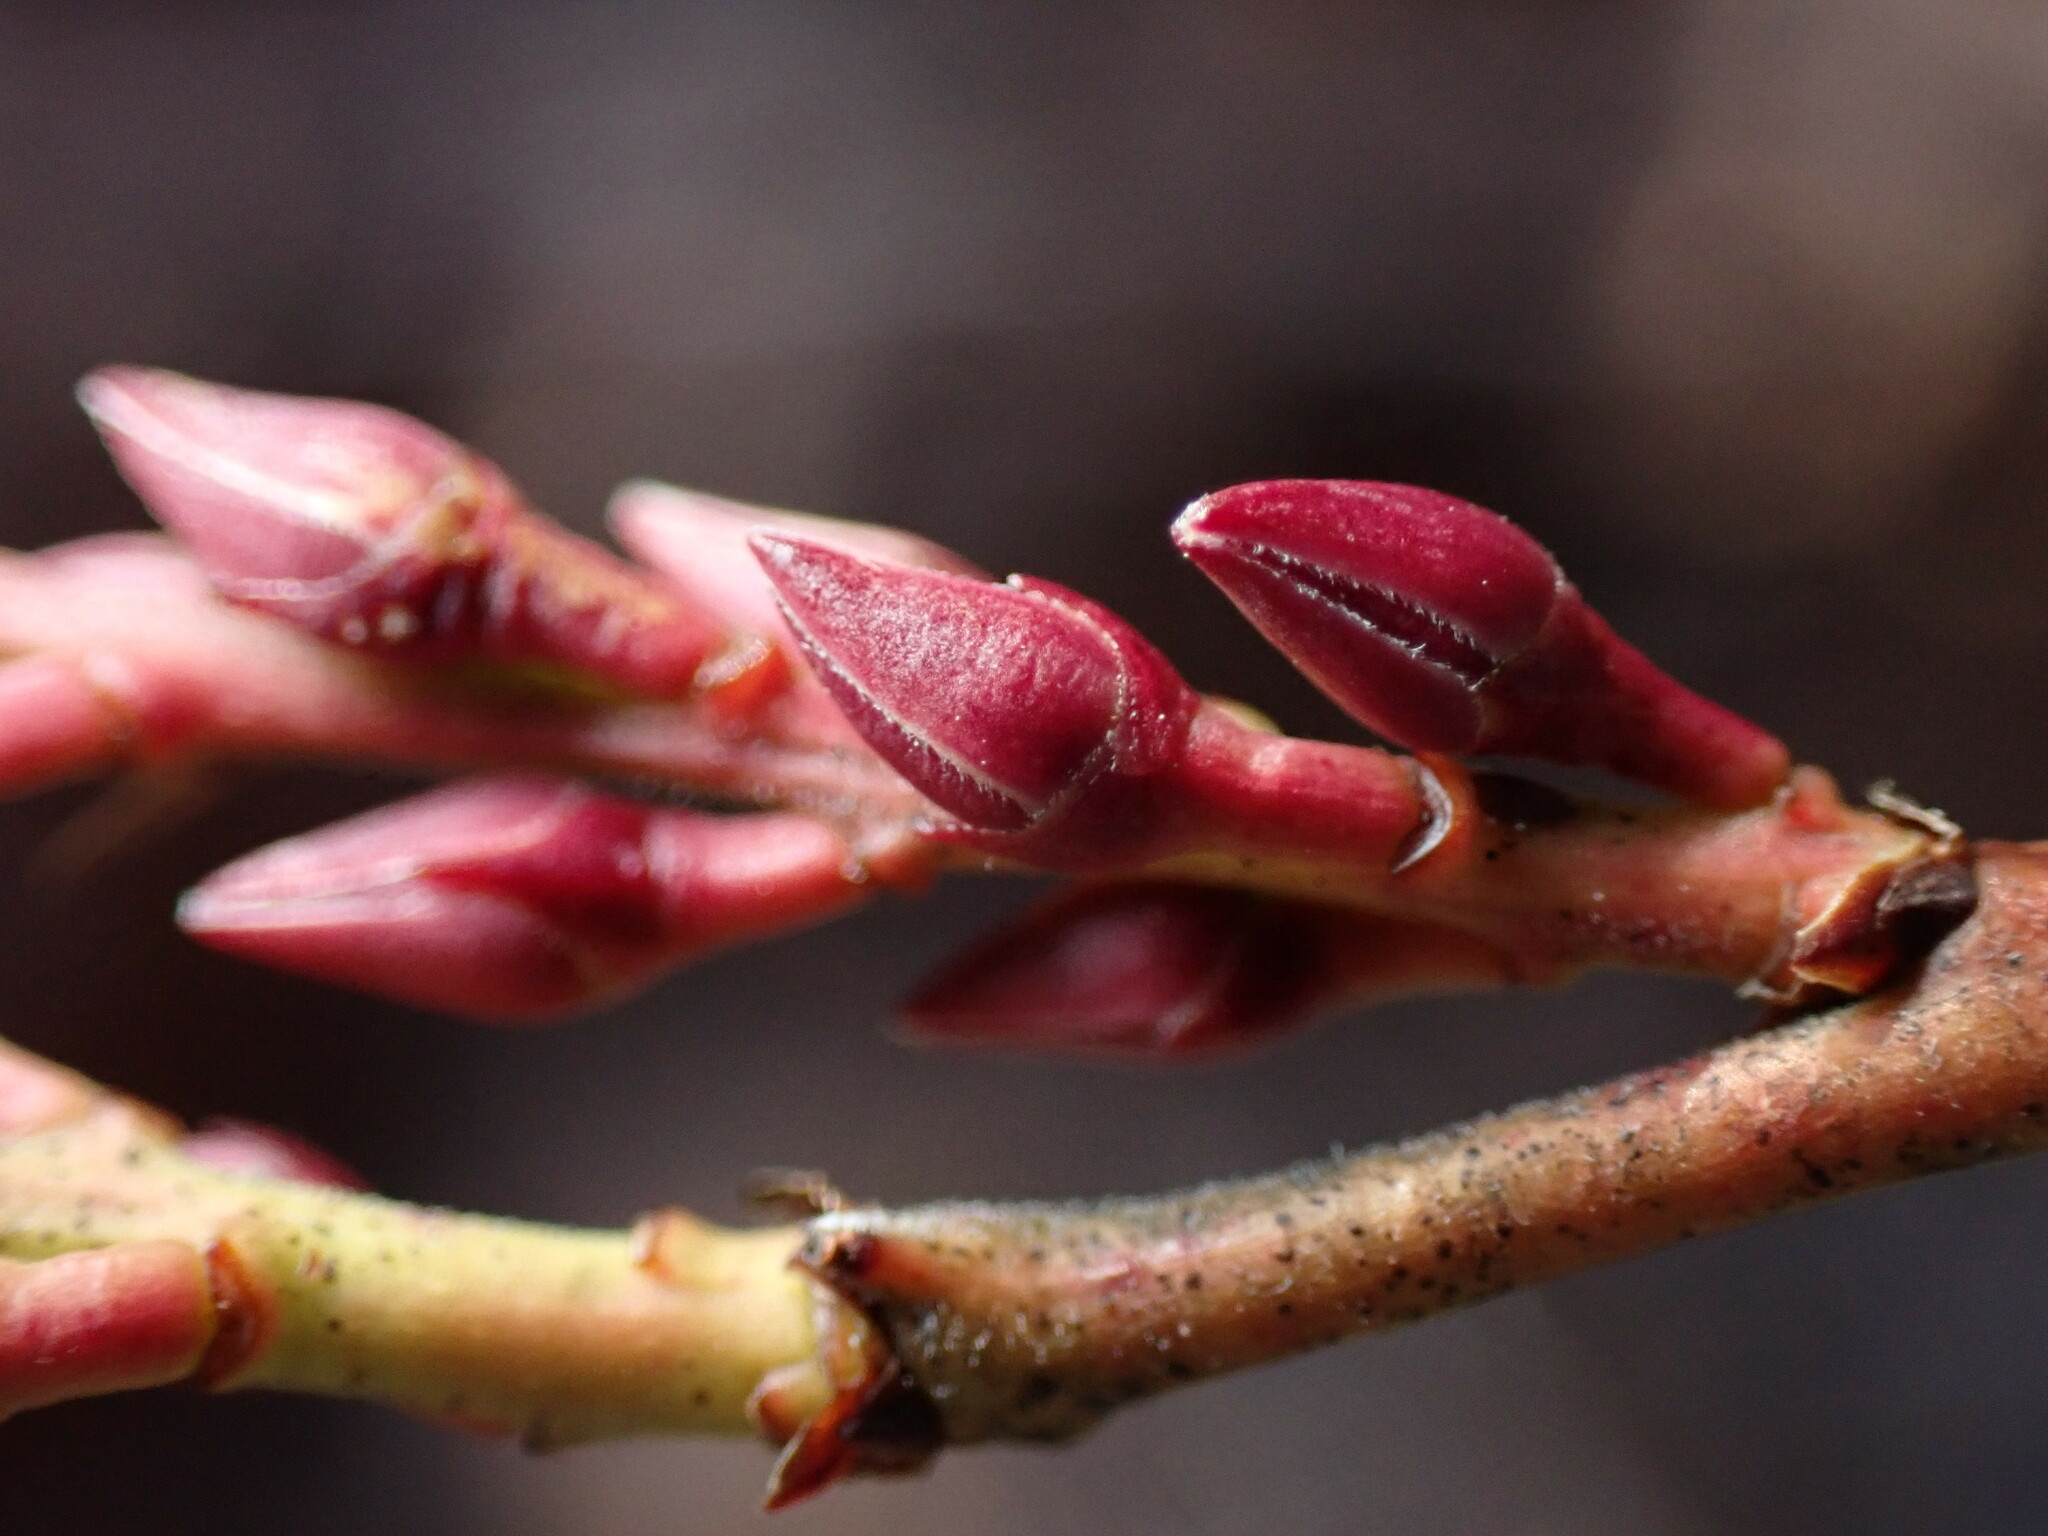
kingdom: Plantae
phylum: Tracheophyta
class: Magnoliopsida
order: Ericales
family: Ericaceae
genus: Eubotrys
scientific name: Eubotrys racemosa
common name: Fetterbush
